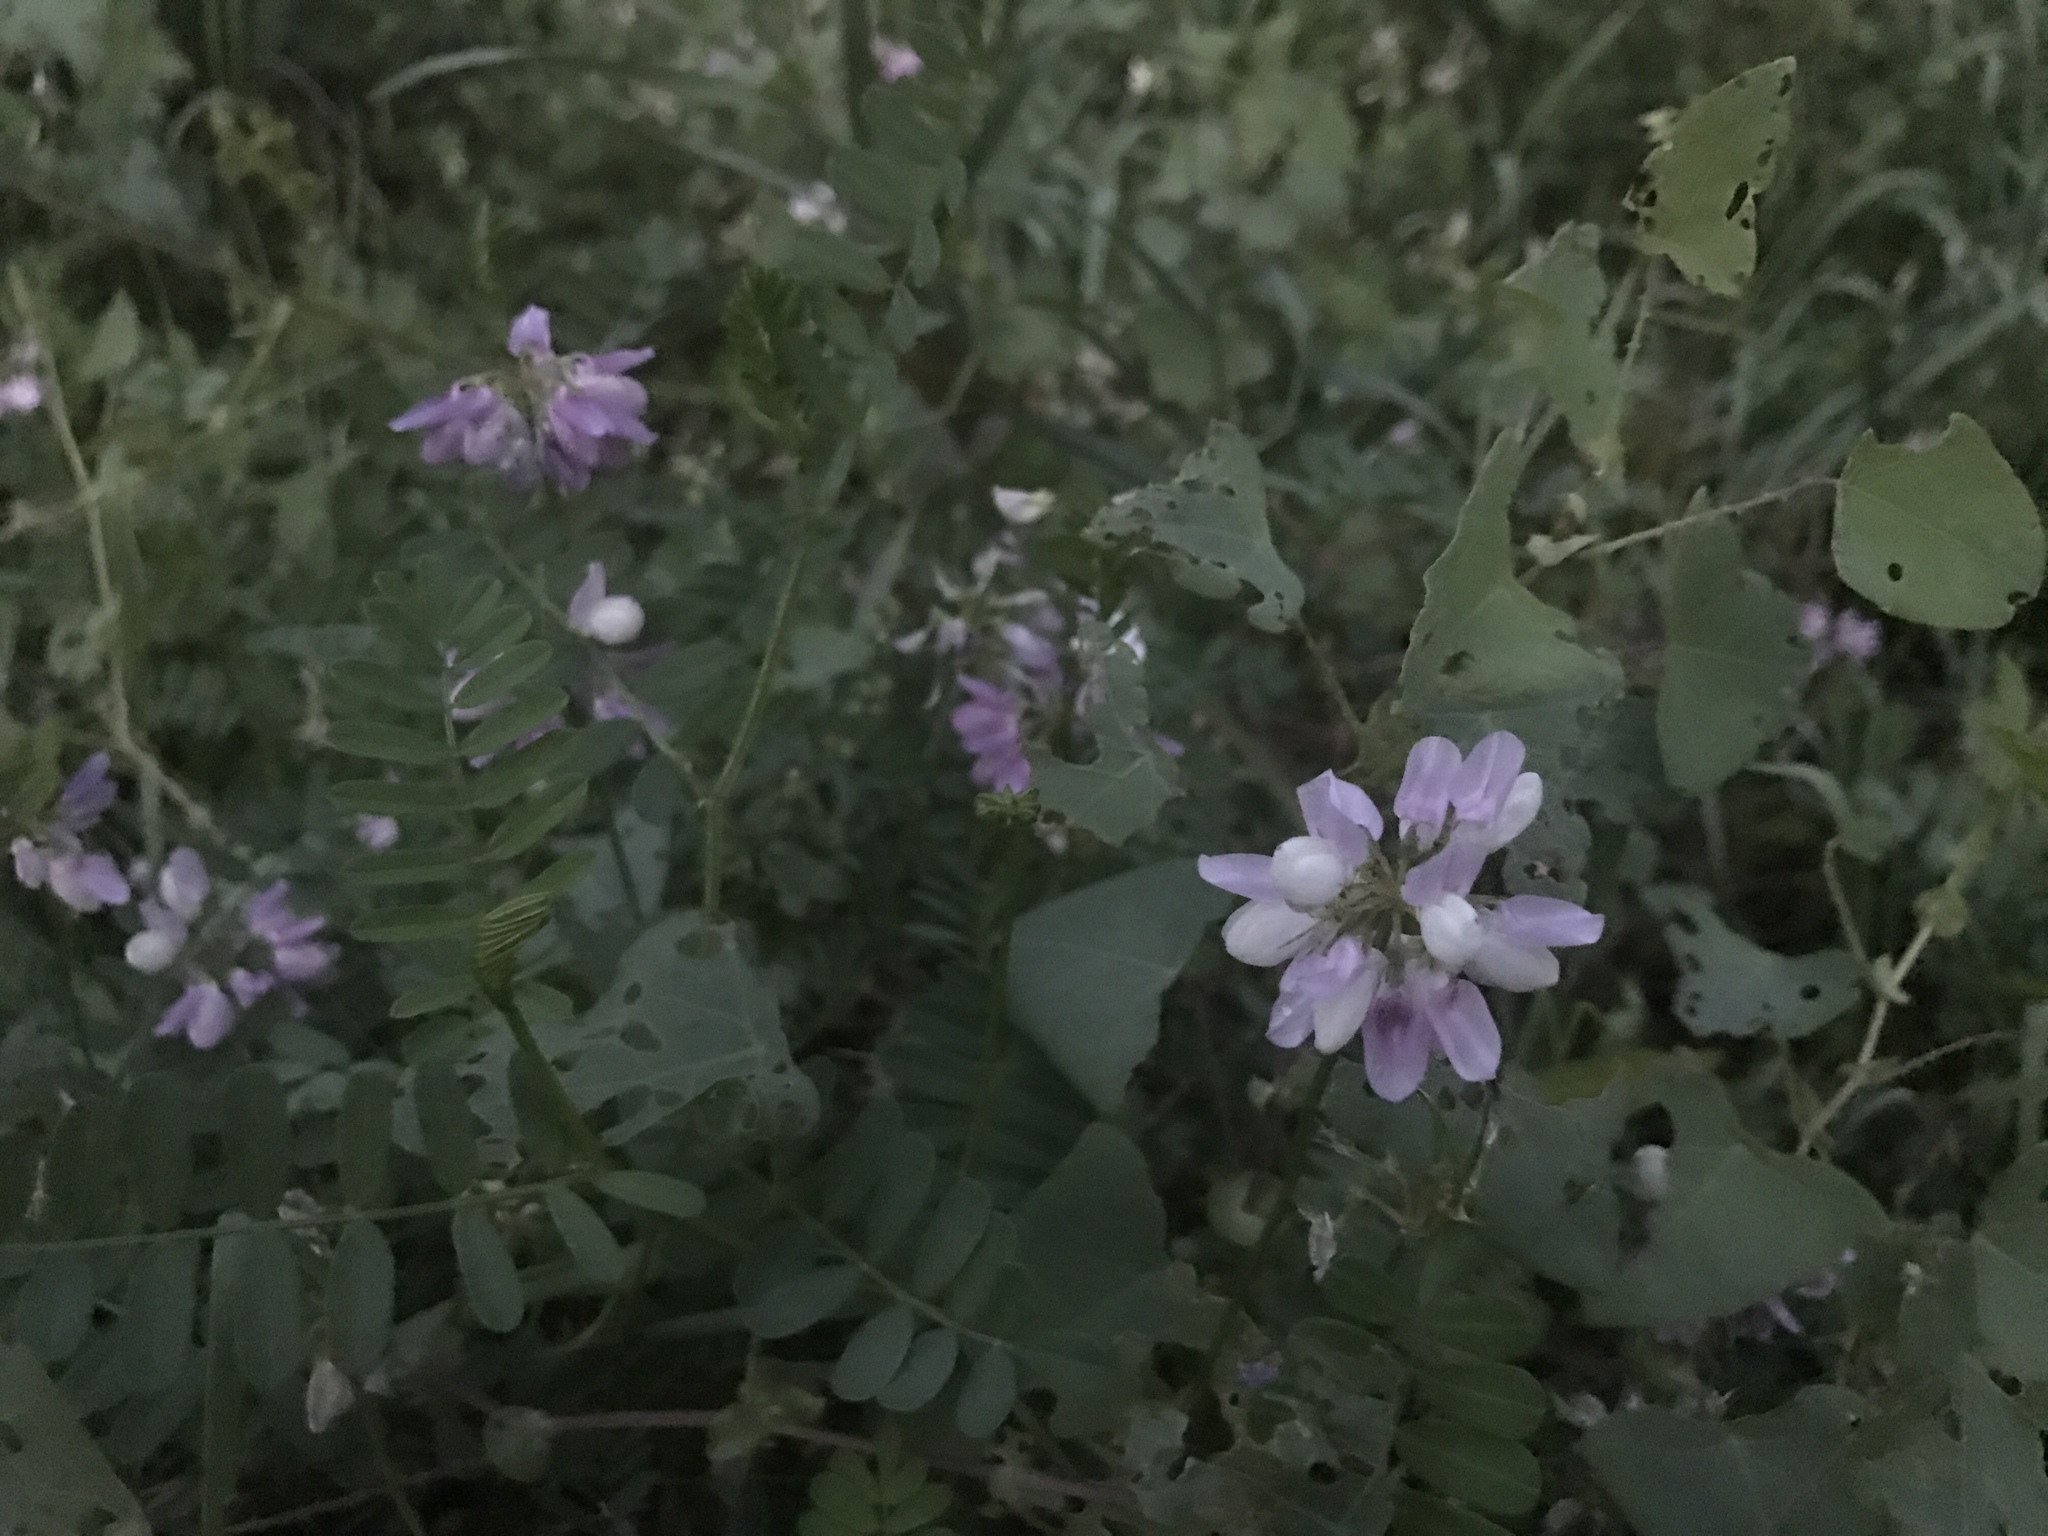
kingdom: Plantae
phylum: Tracheophyta
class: Magnoliopsida
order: Fabales
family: Fabaceae
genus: Coronilla
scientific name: Coronilla varia
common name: Crownvetch
